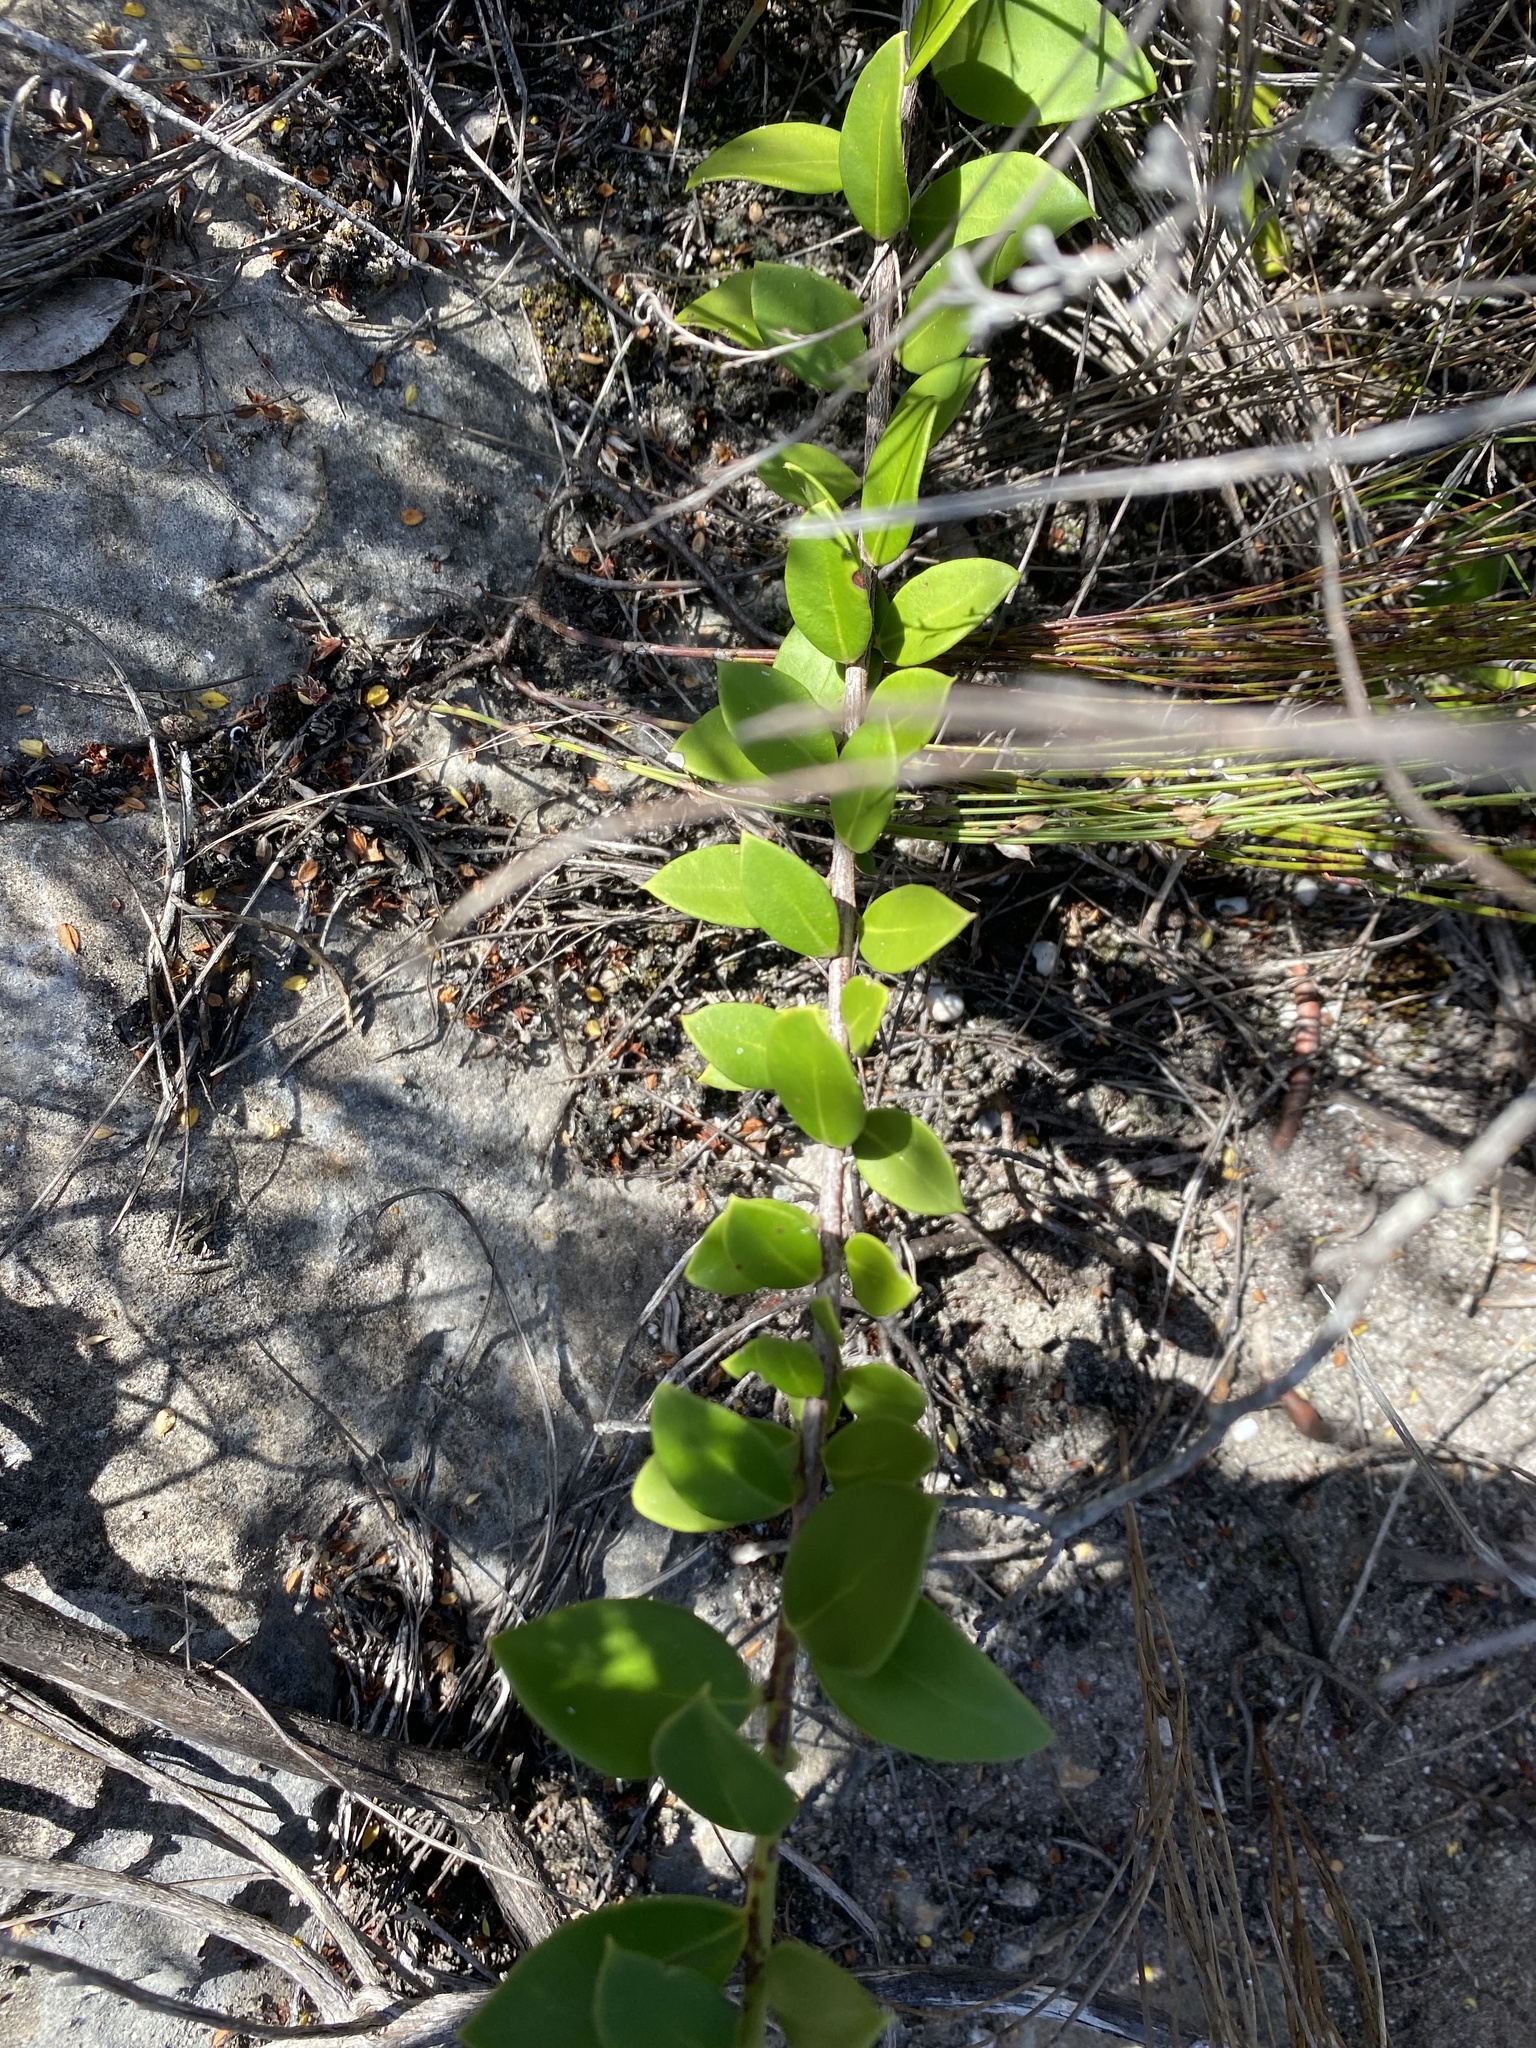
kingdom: Plantae
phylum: Tracheophyta
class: Magnoliopsida
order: Celastrales
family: Celastraceae
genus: Robsonodendron
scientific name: Robsonodendron maritimum
